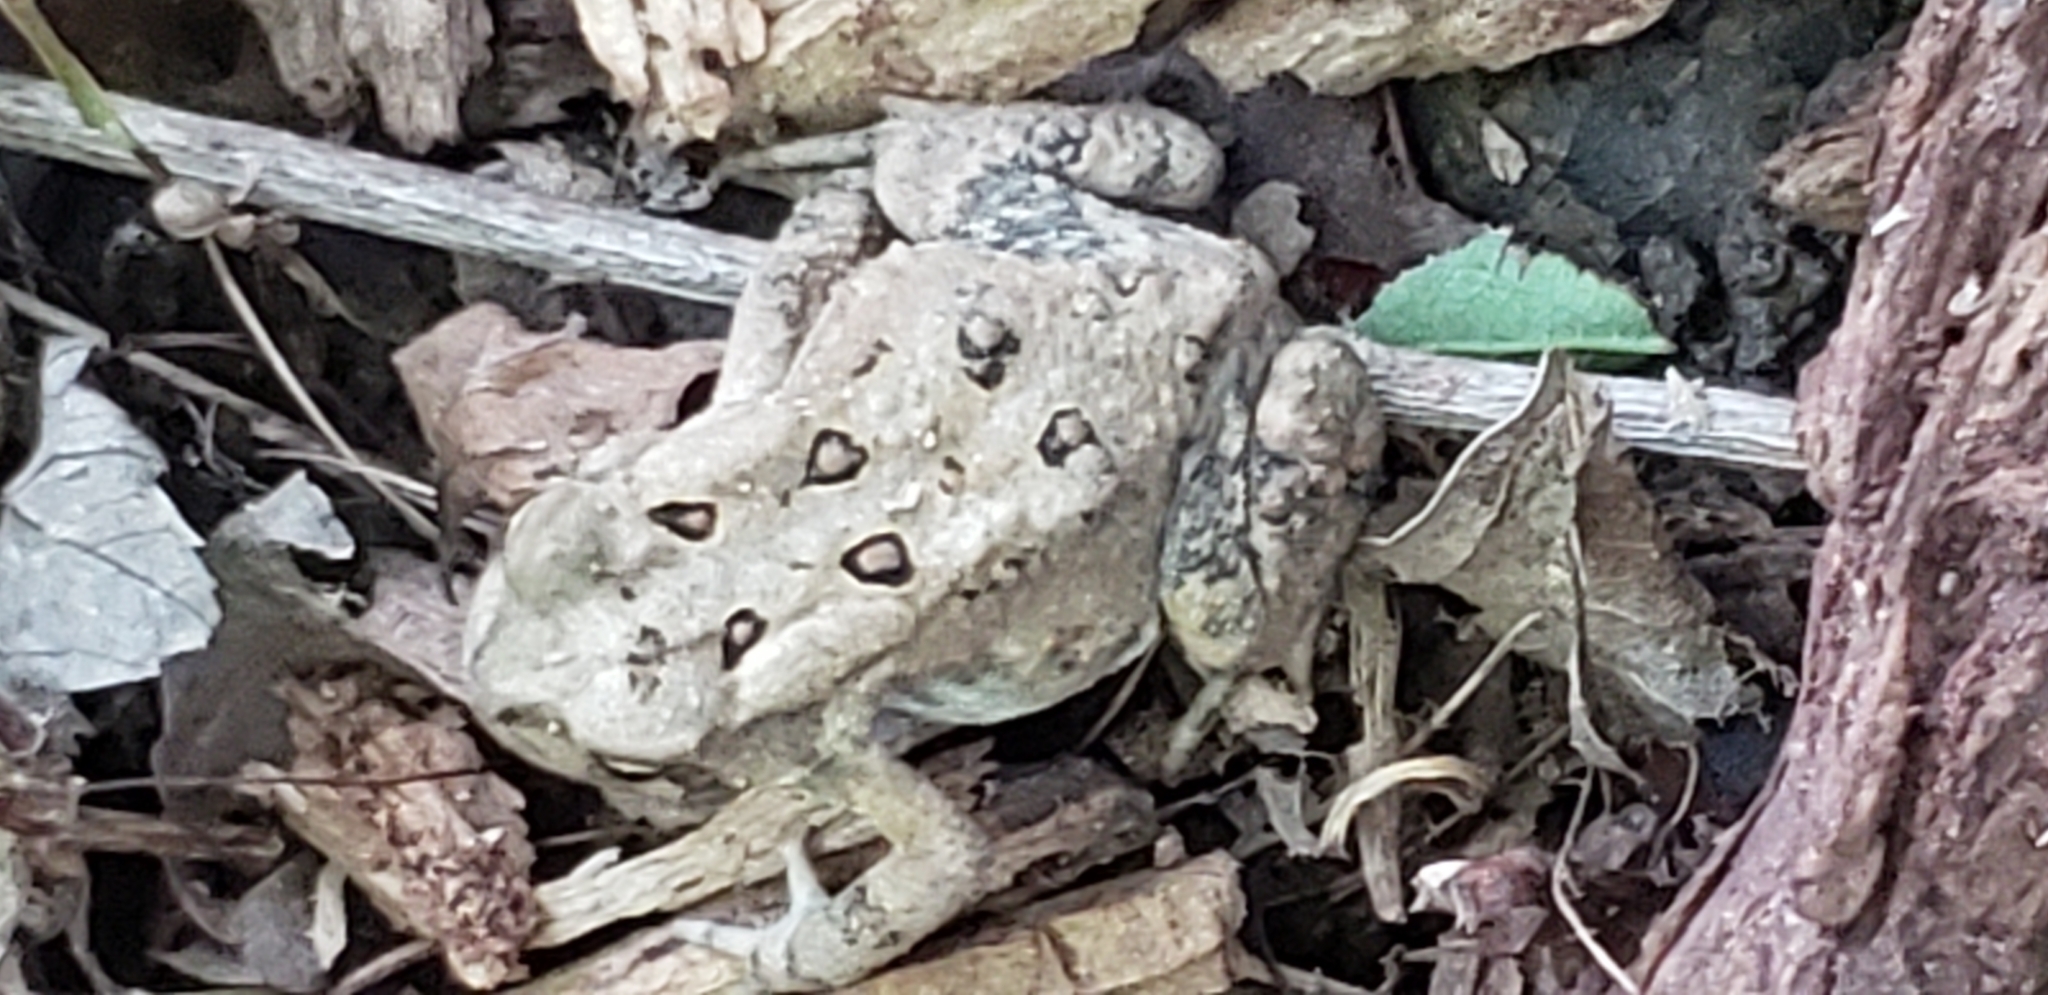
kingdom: Animalia
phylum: Chordata
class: Amphibia
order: Anura
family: Bufonidae
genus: Anaxyrus
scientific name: Anaxyrus americanus
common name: American toad
